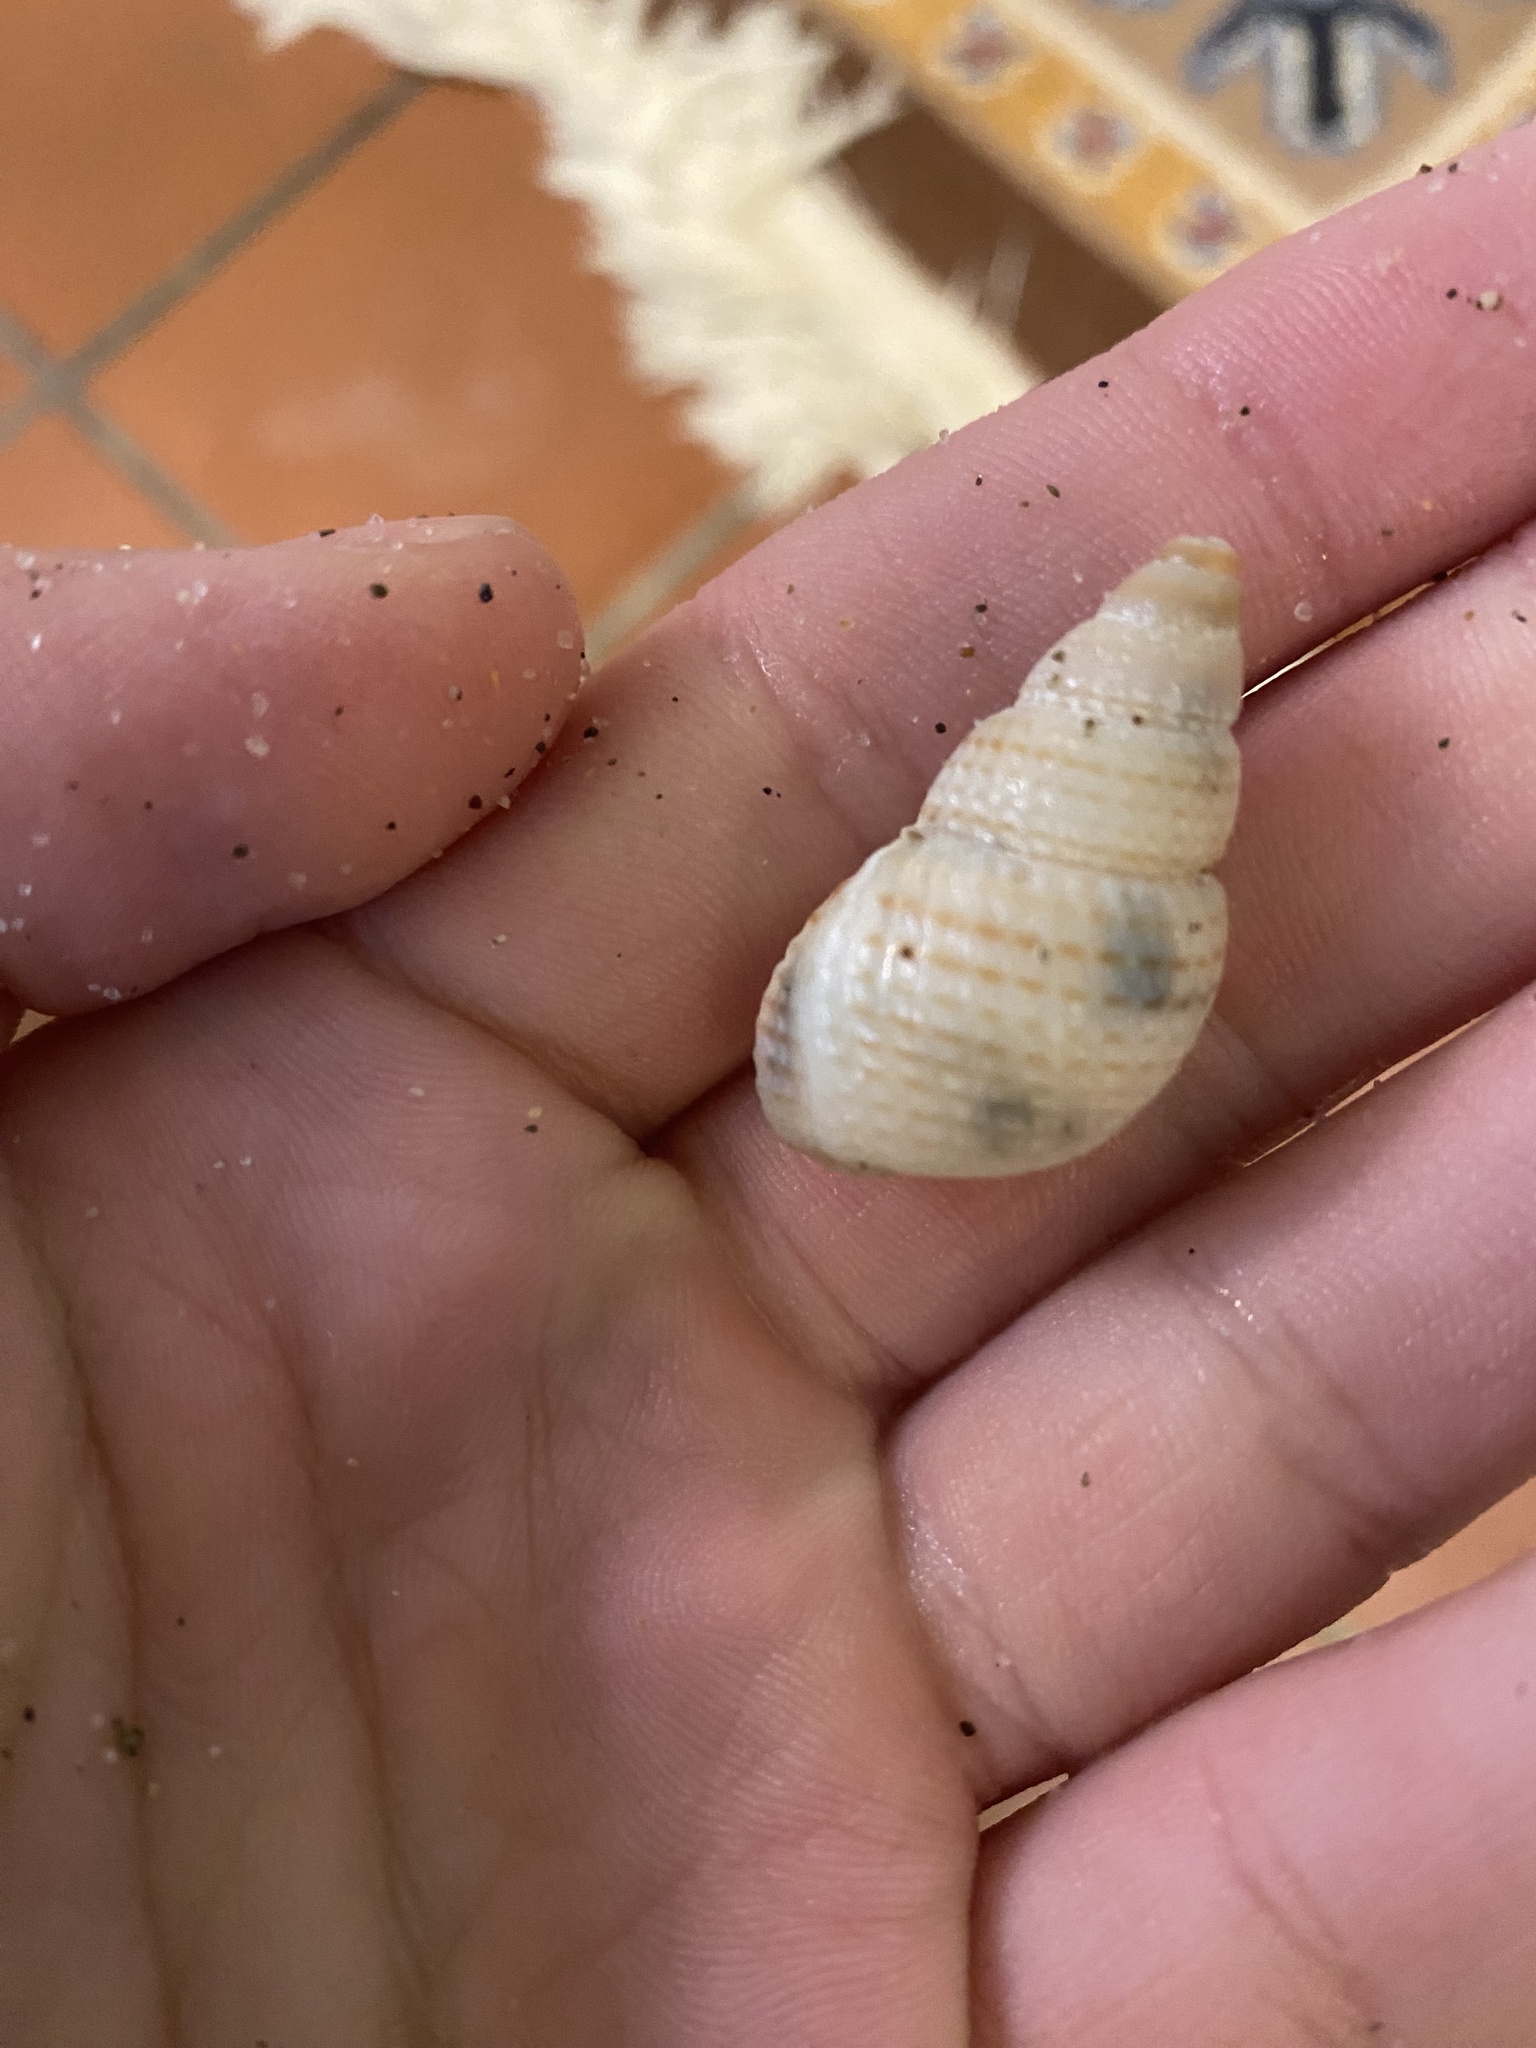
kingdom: Animalia
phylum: Mollusca
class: Gastropoda
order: Neogastropoda
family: Nassariidae
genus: Caesia
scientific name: Caesia perpinguis
